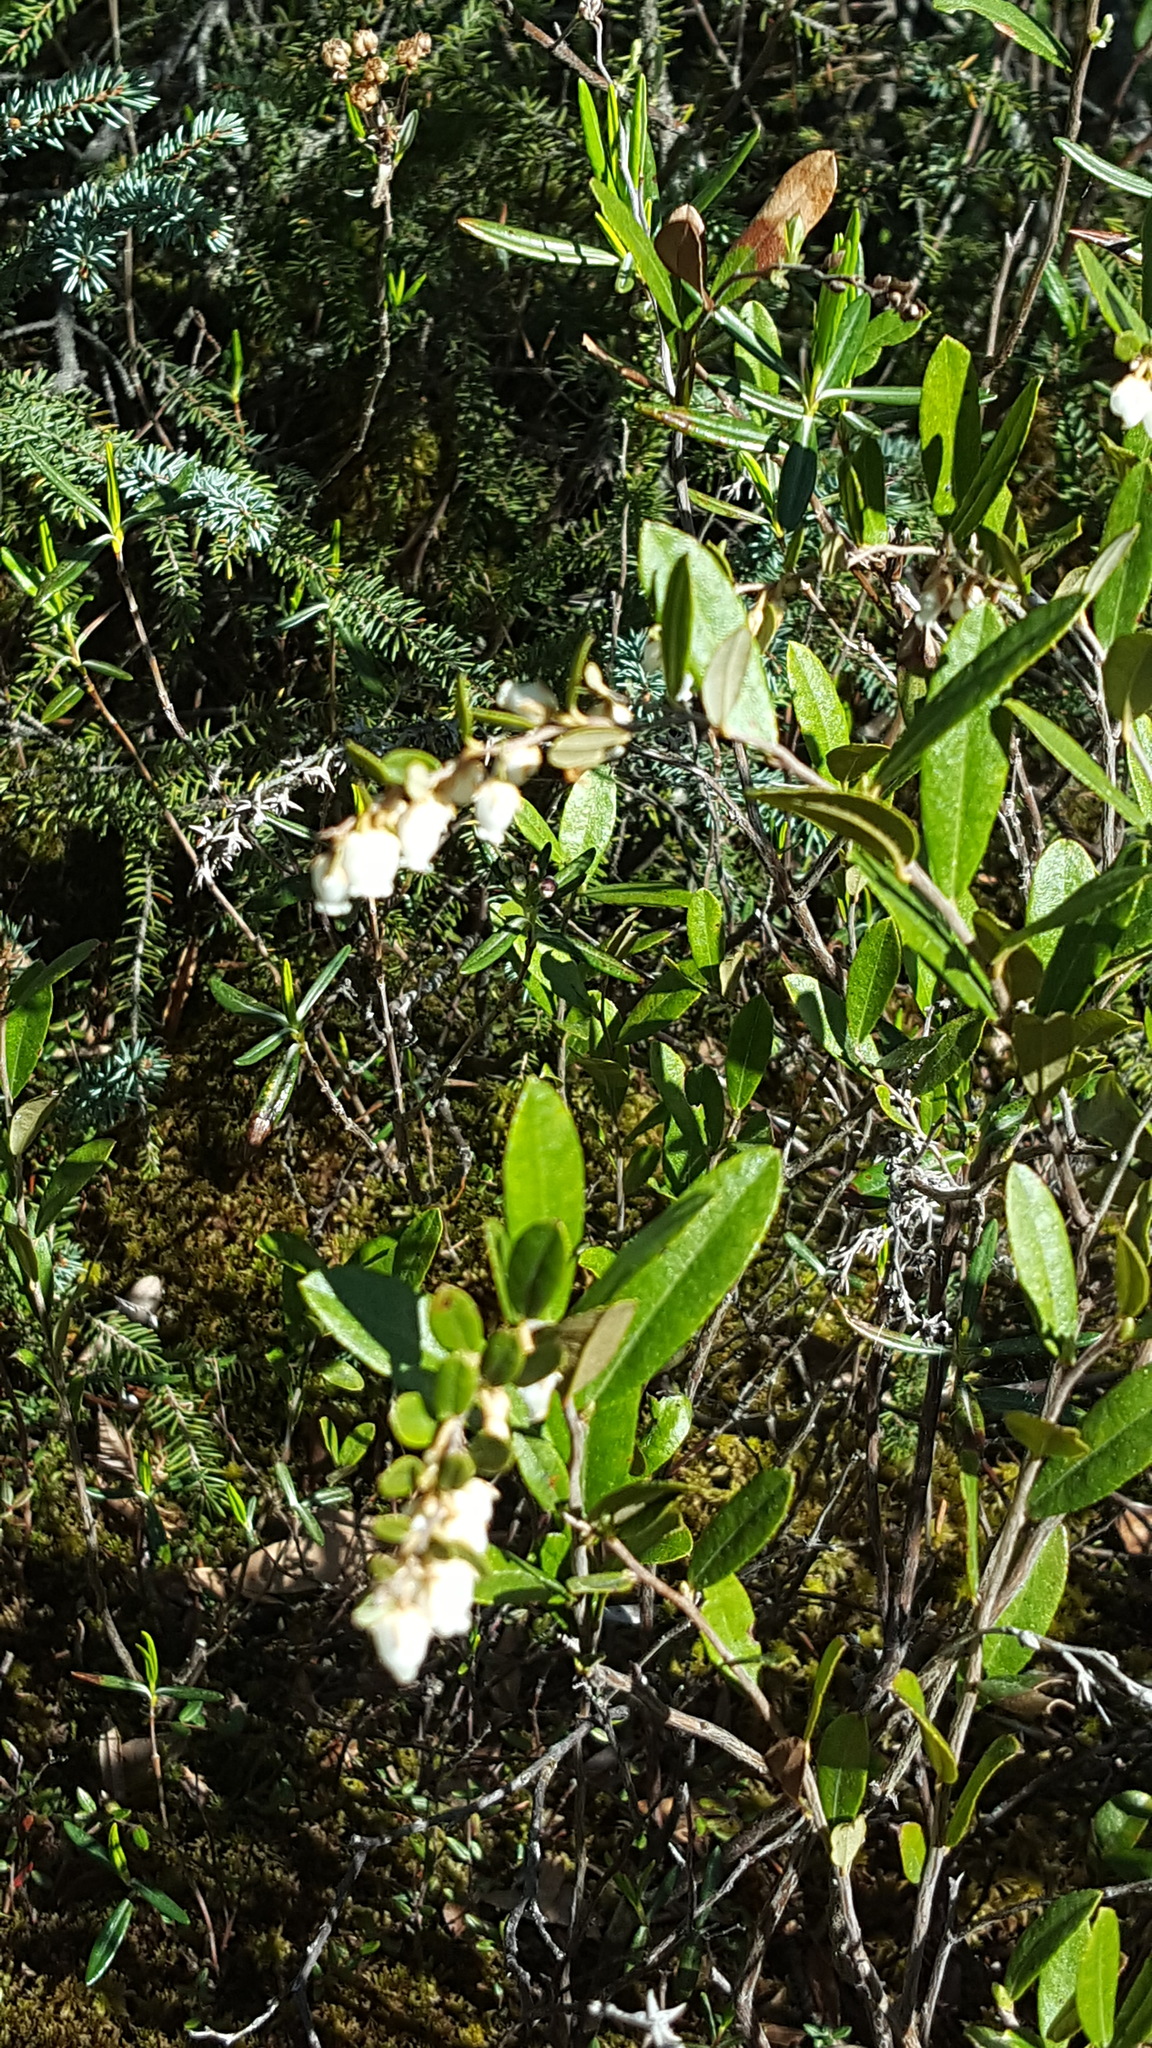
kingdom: Plantae
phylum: Tracheophyta
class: Magnoliopsida
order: Ericales
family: Ericaceae
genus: Chamaedaphne
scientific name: Chamaedaphne calyculata
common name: Leatherleaf
